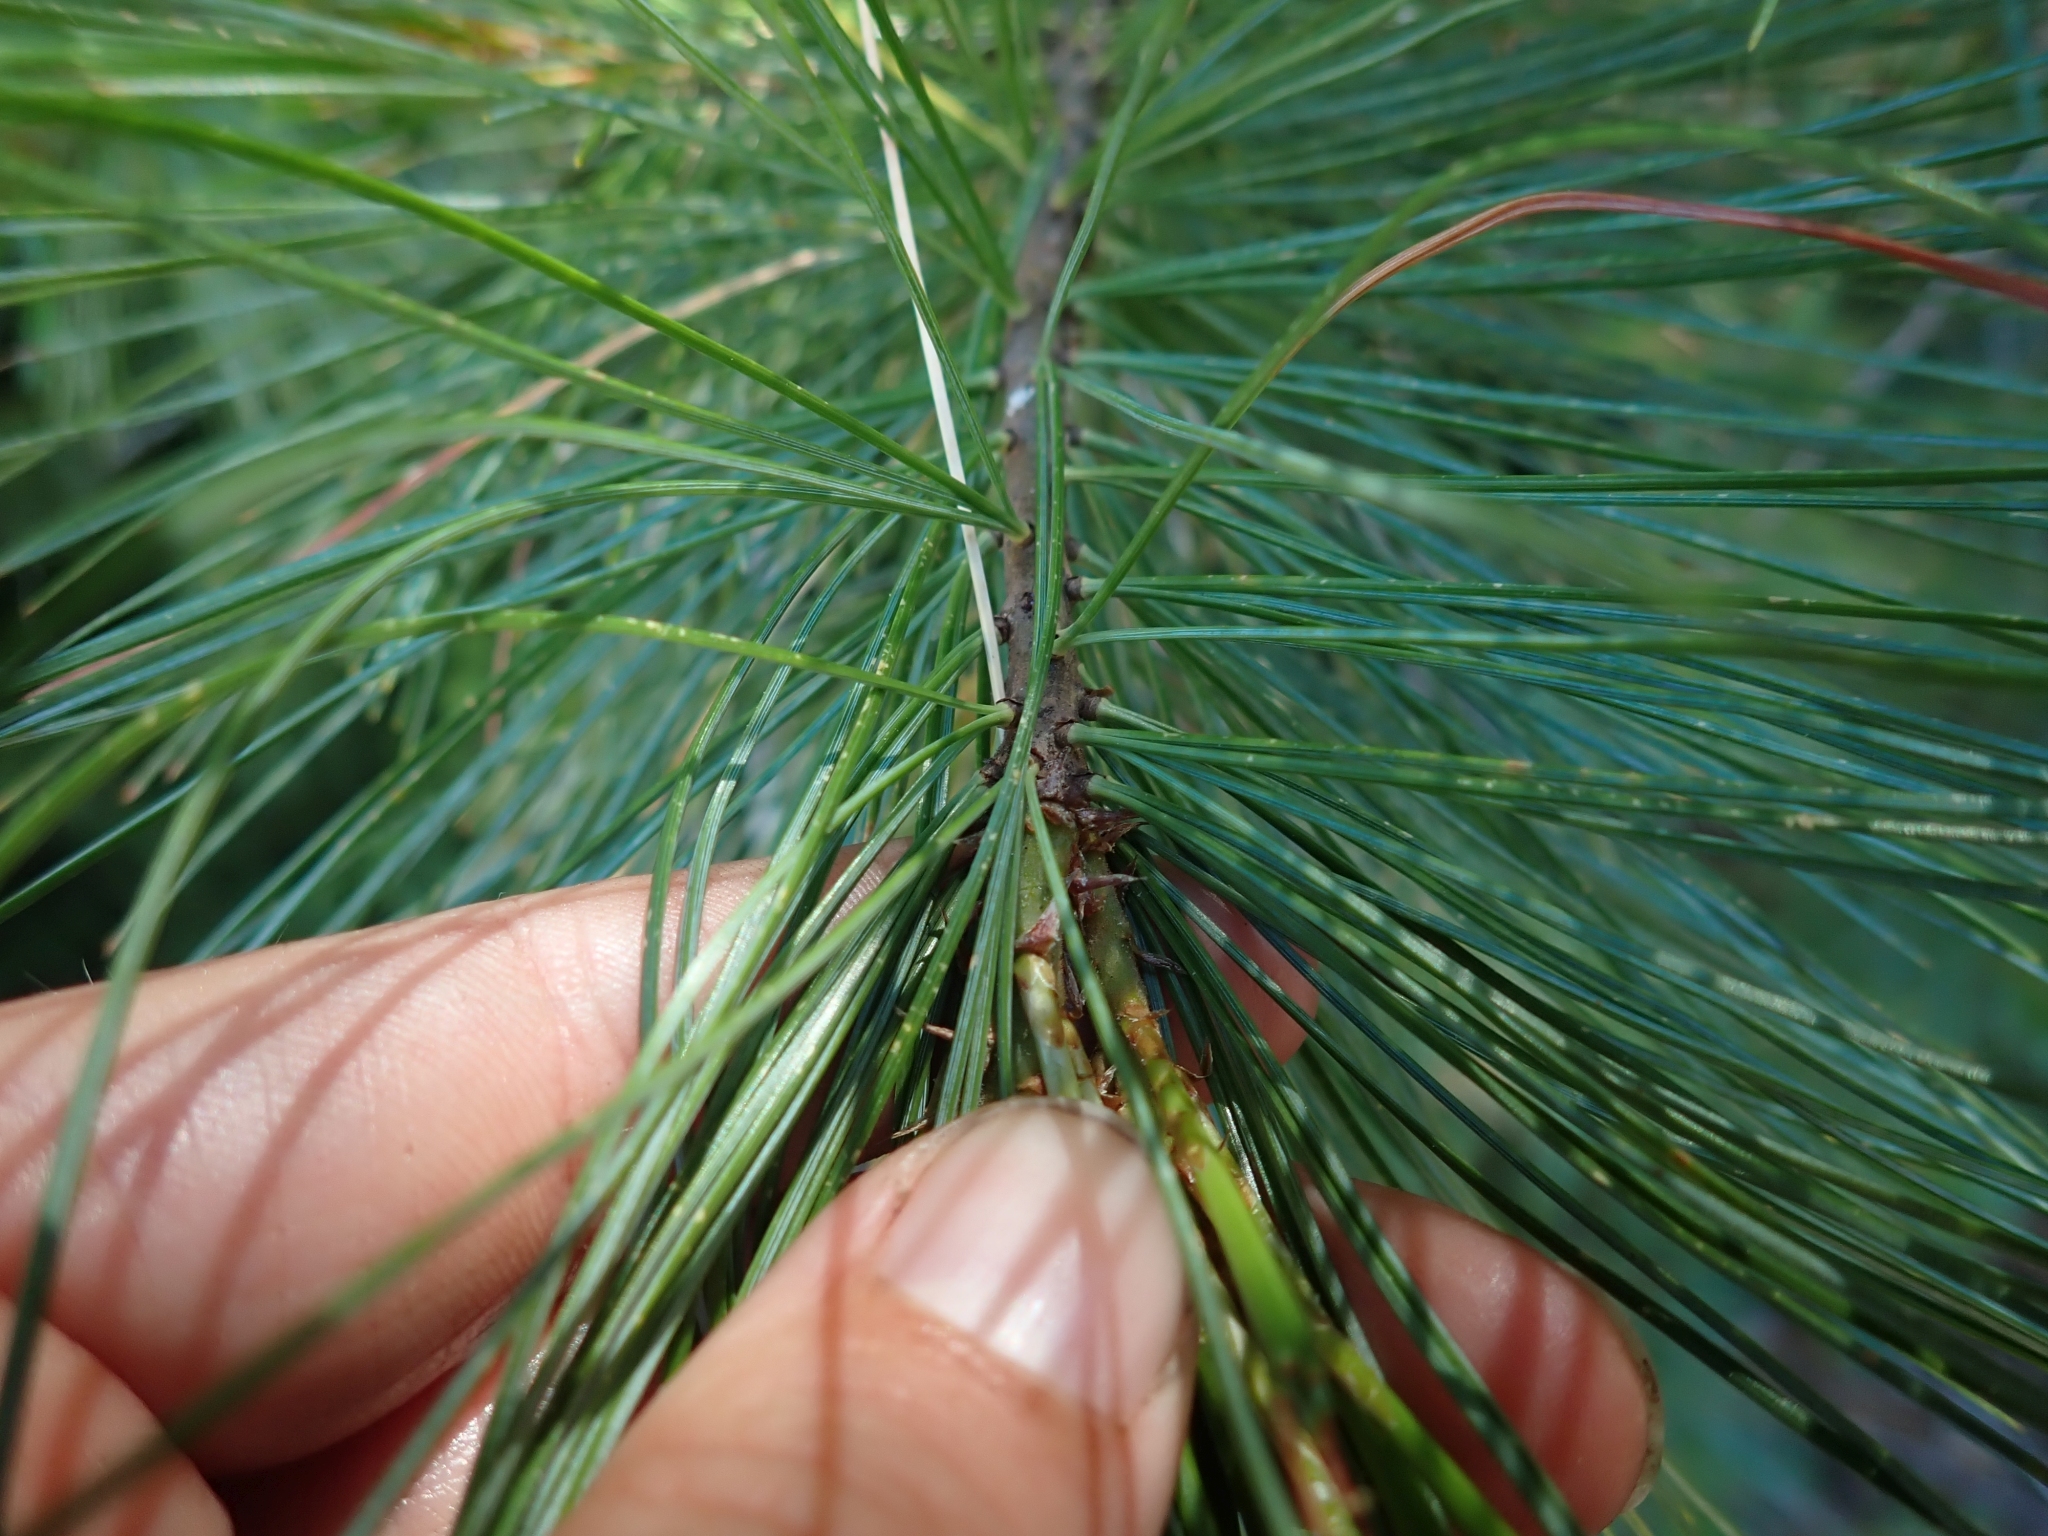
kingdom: Plantae
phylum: Tracheophyta
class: Pinopsida
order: Pinales
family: Pinaceae
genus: Pinus
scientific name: Pinus monticola
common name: Western white pine
